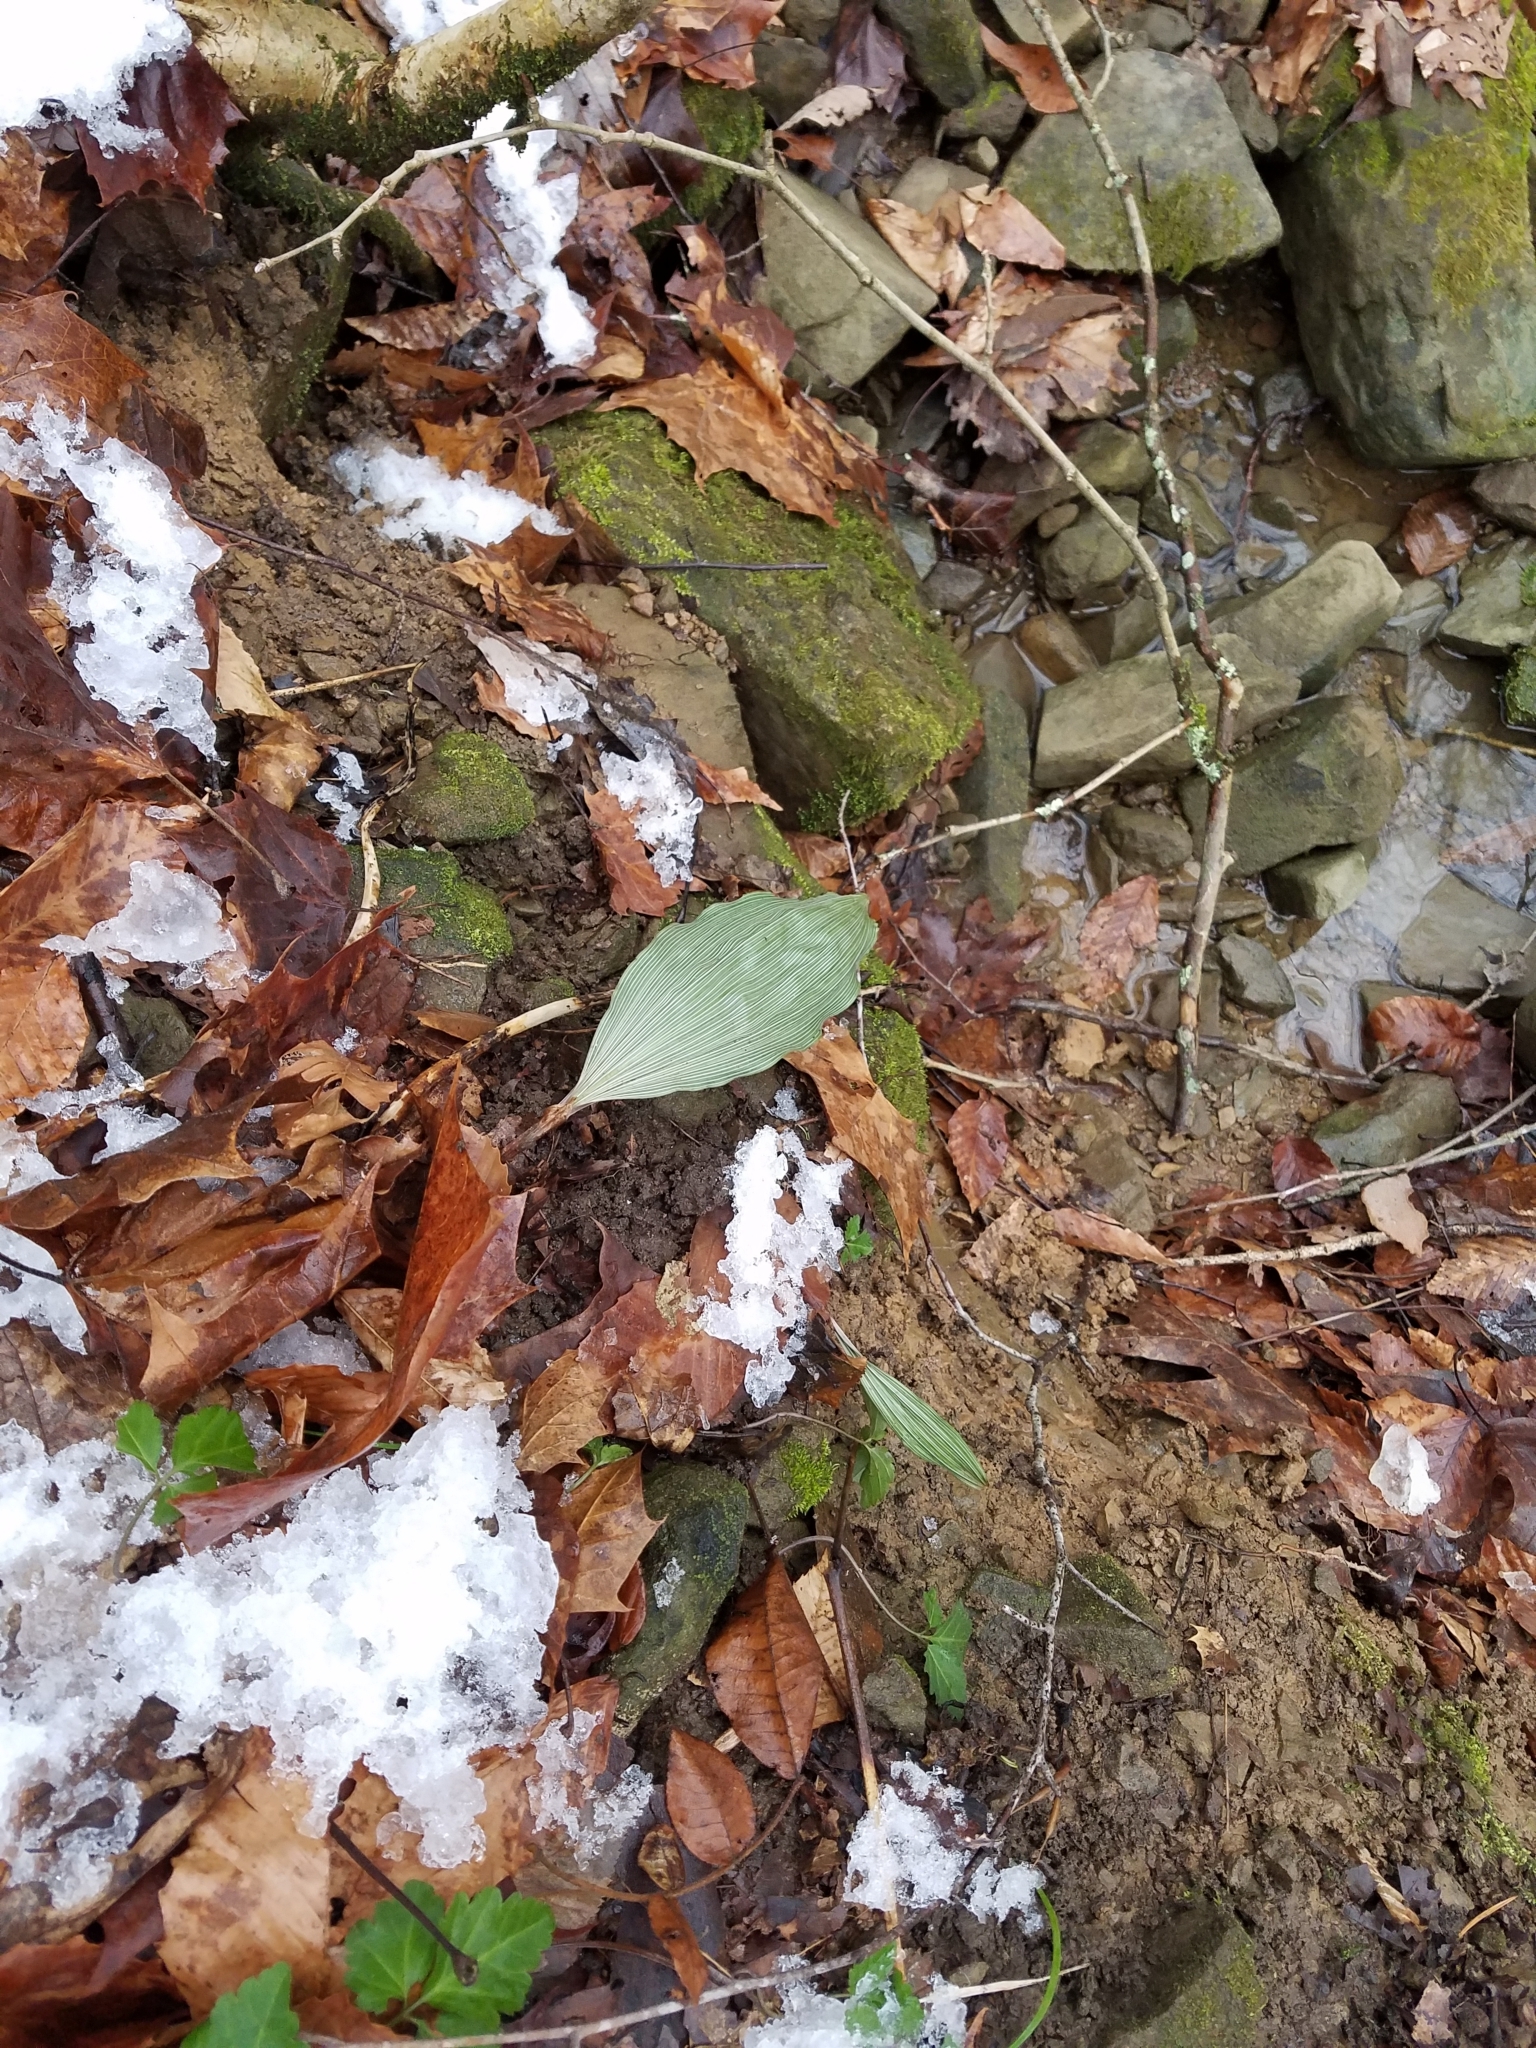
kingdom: Plantae
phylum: Tracheophyta
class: Liliopsida
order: Asparagales
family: Orchidaceae
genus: Aplectrum
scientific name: Aplectrum hyemale
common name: Adam-and-eve
